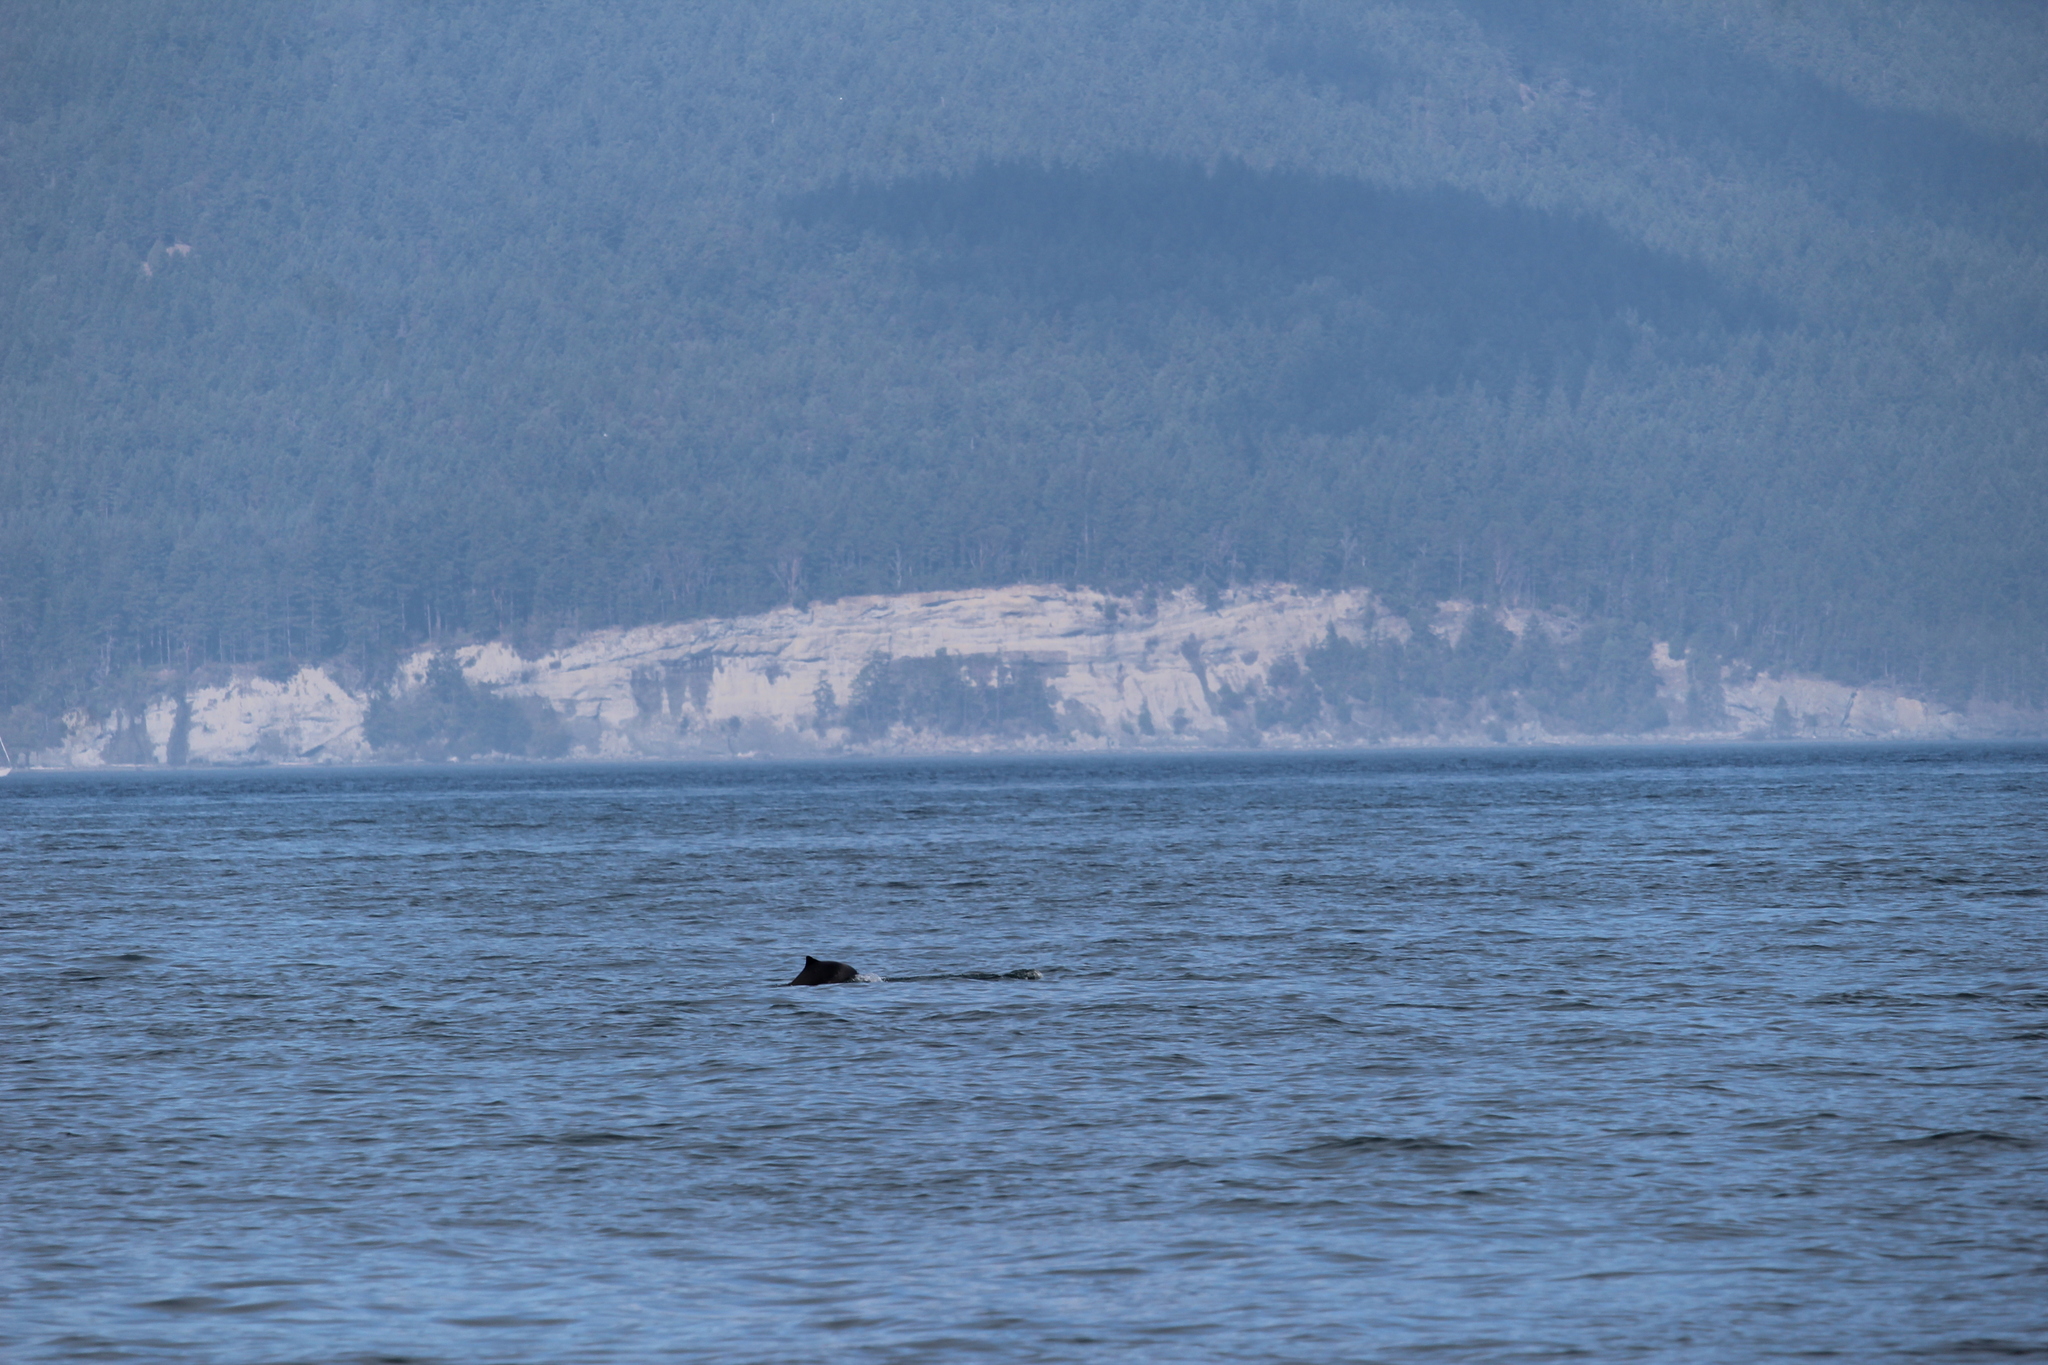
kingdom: Animalia
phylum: Chordata
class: Mammalia
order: Cetacea
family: Phocoenidae
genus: Phocoena
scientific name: Phocoena phocoena
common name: Harbor porpoise
